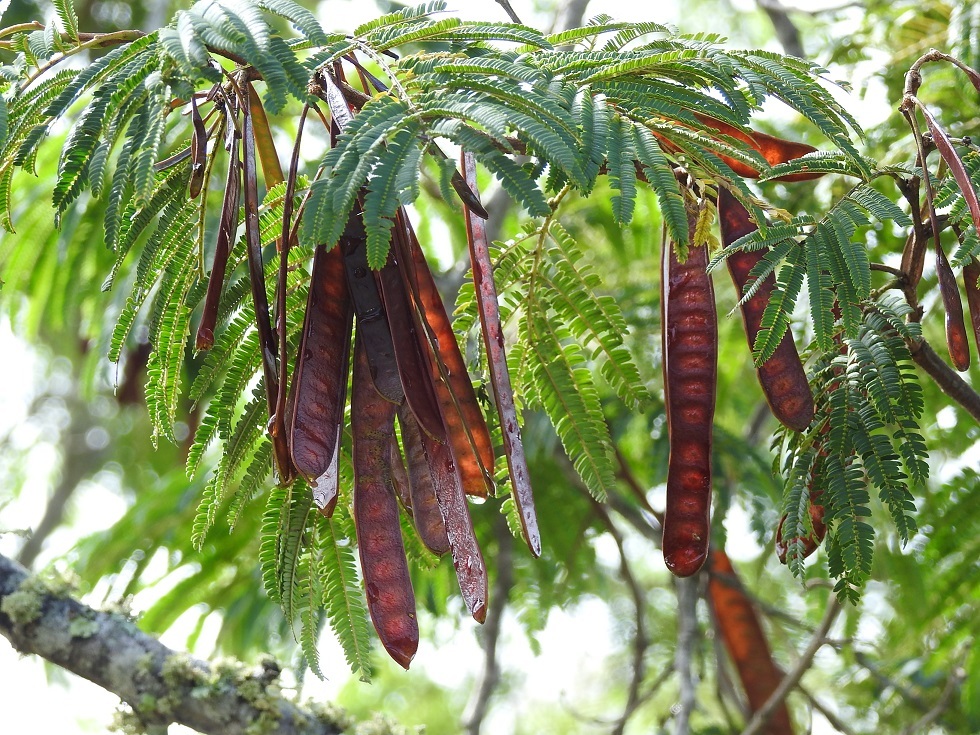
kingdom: Plantae
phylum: Tracheophyta
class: Magnoliopsida
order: Fabales
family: Fabaceae
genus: Leucaena
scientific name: Leucaena diversifolia
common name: Red leucaena
